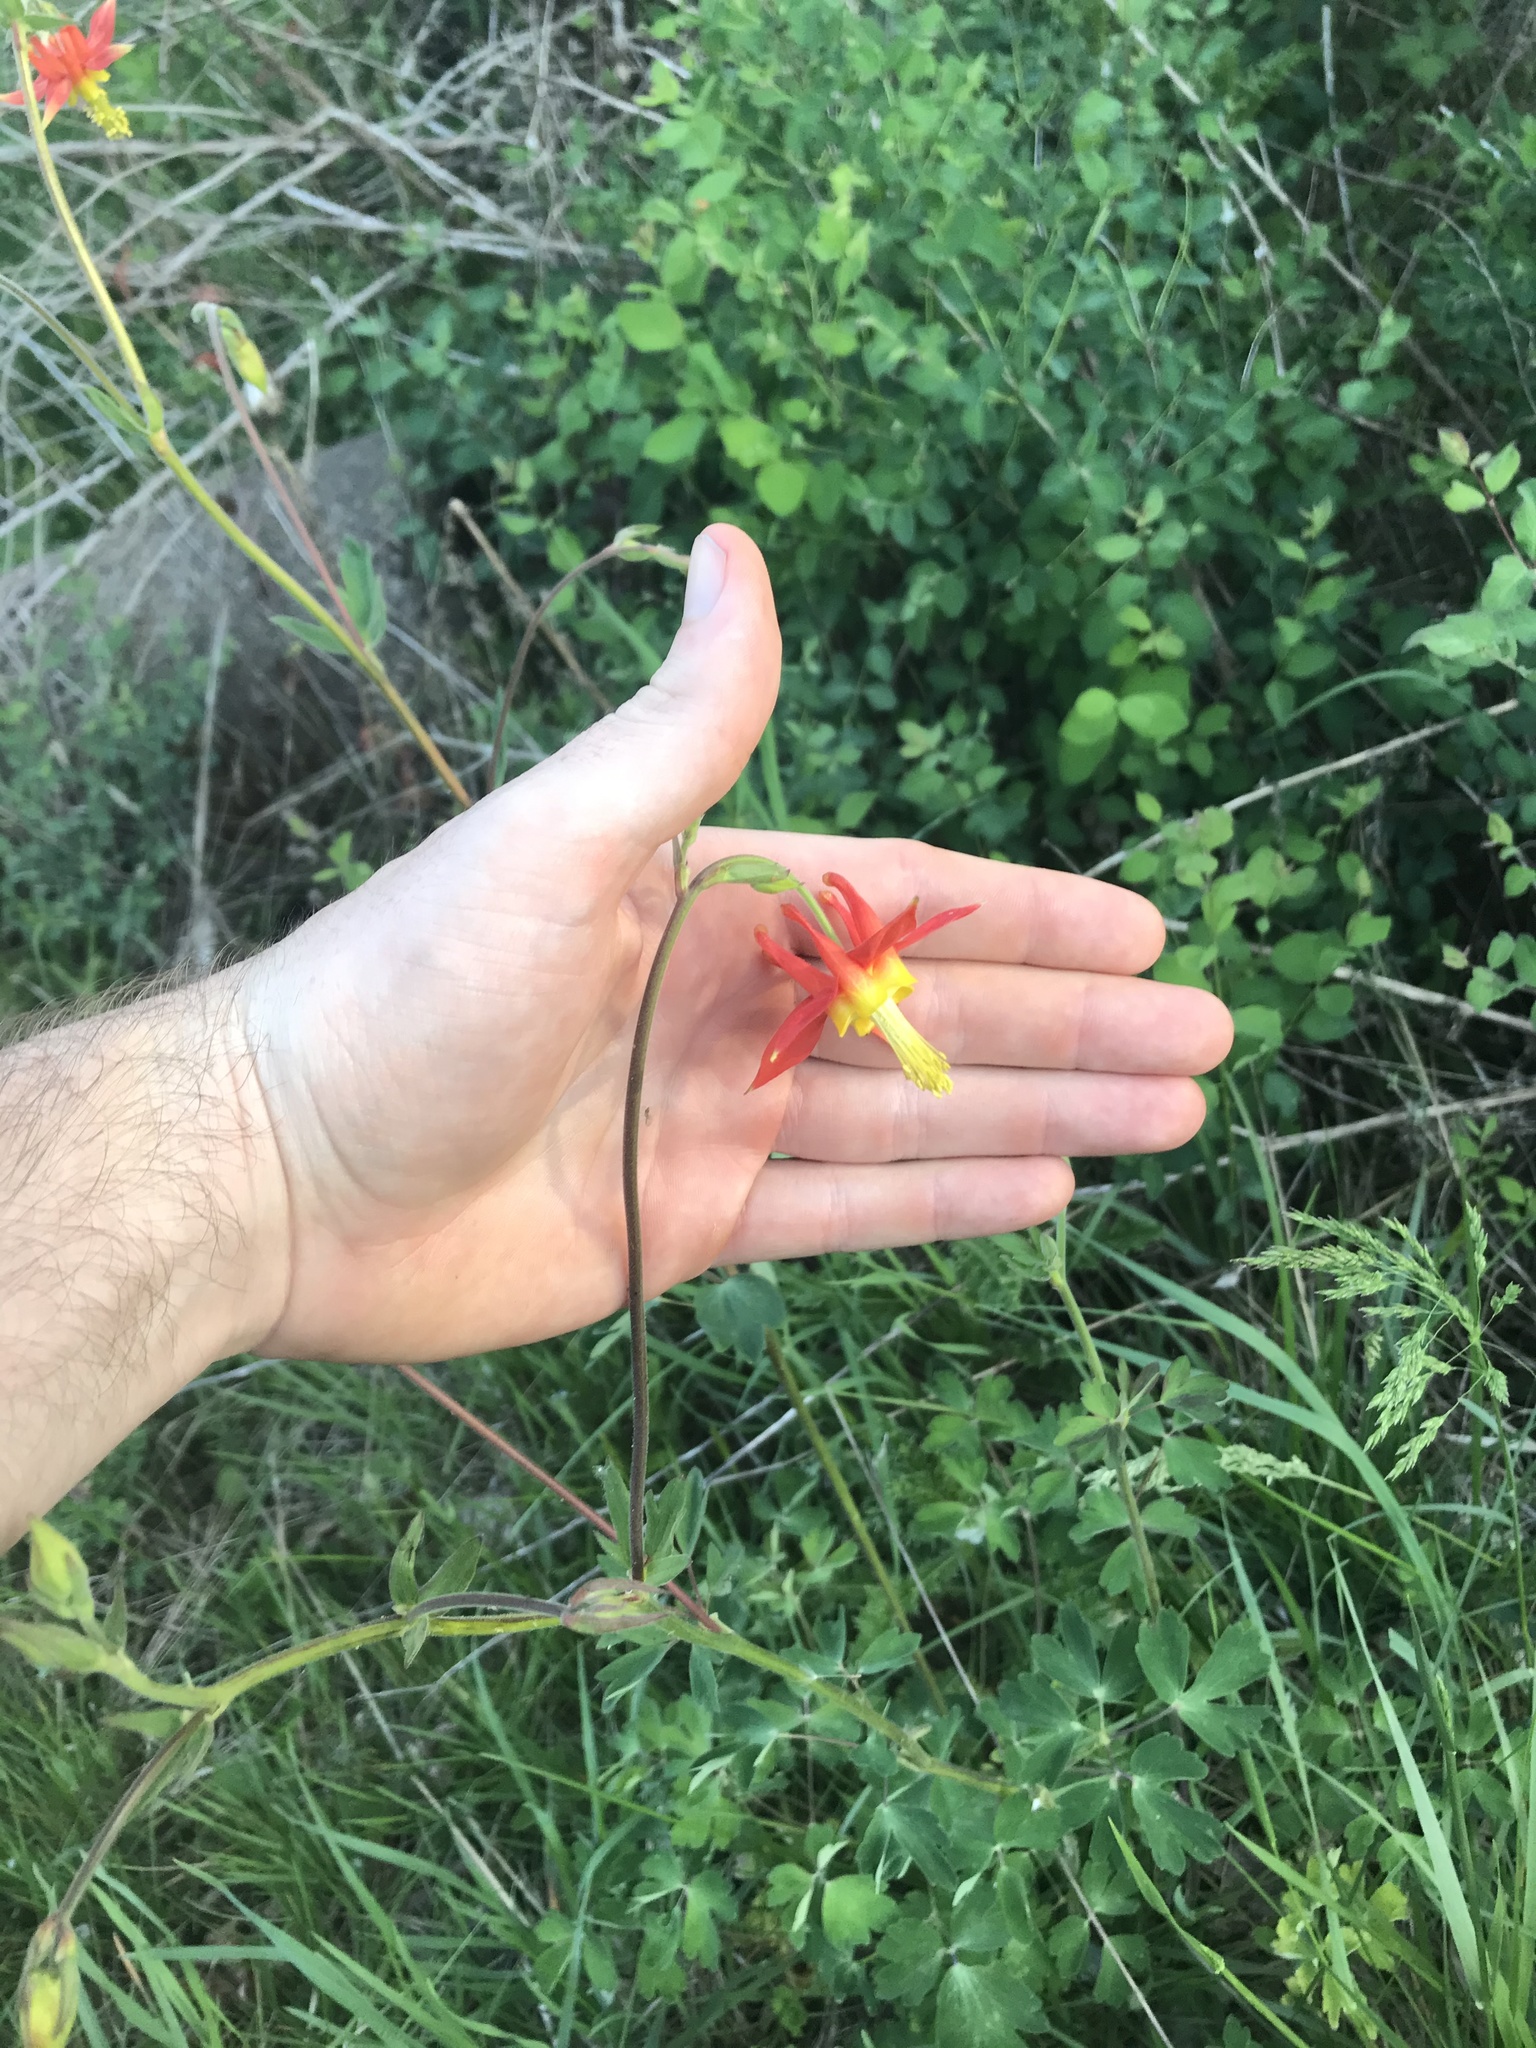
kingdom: Plantae
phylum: Tracheophyta
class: Magnoliopsida
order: Ranunculales
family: Ranunculaceae
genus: Aquilegia
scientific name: Aquilegia formosa
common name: Sitka columbine
